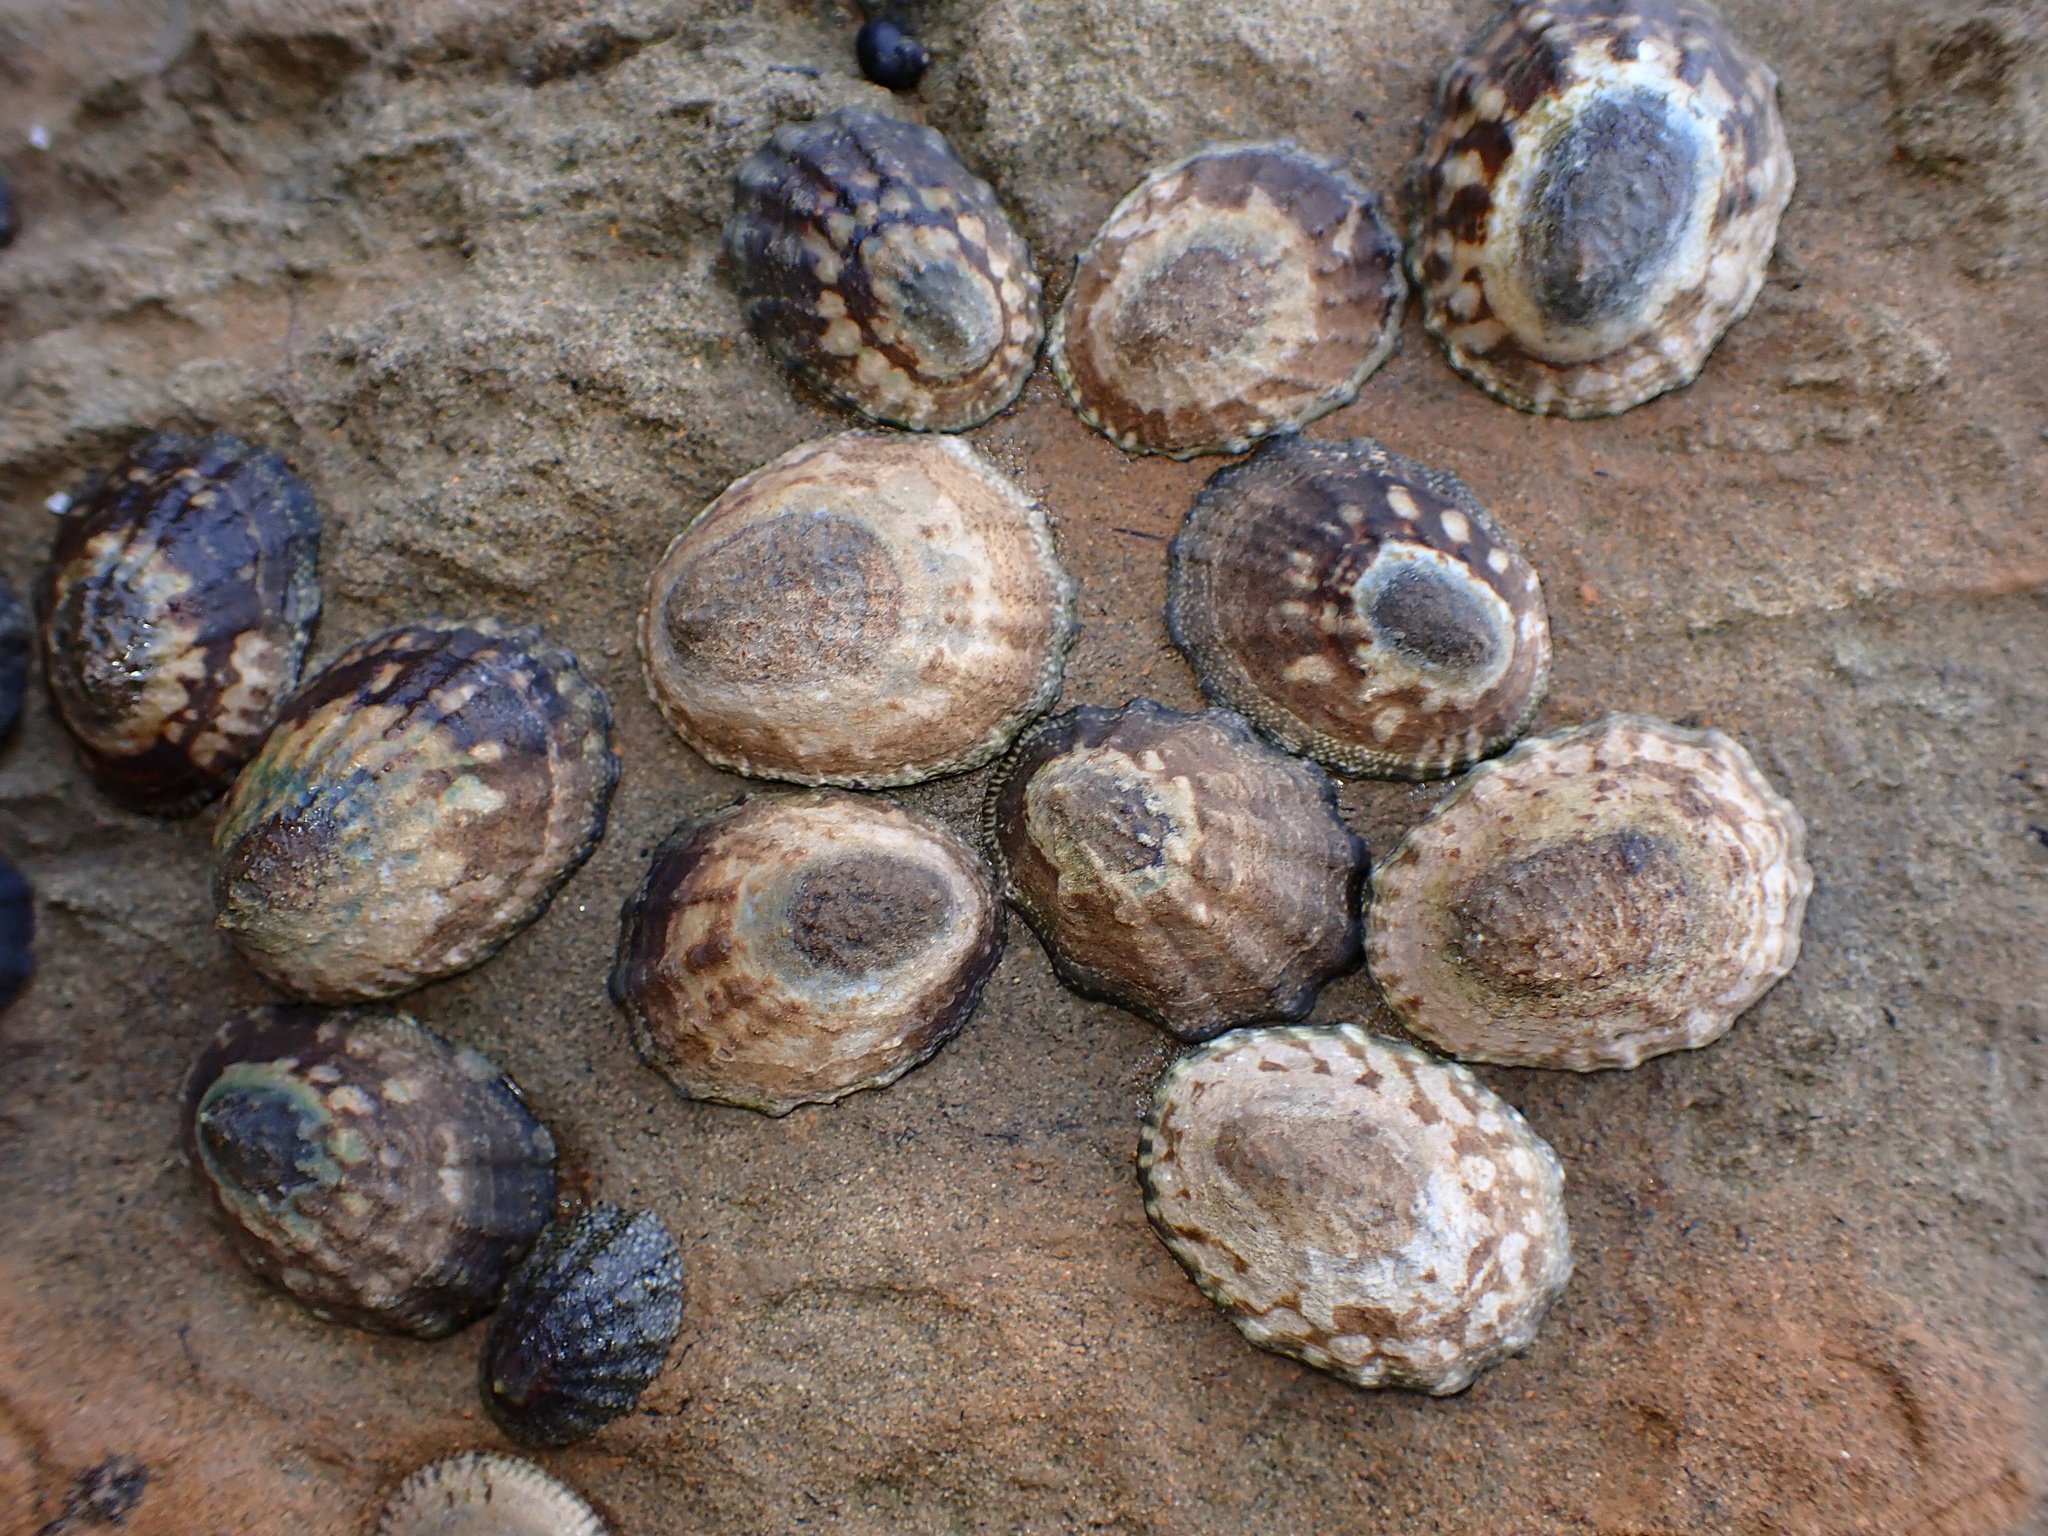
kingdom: Animalia
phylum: Mollusca
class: Gastropoda
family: Lottiidae
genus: Lottia
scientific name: Lottia digitalis
